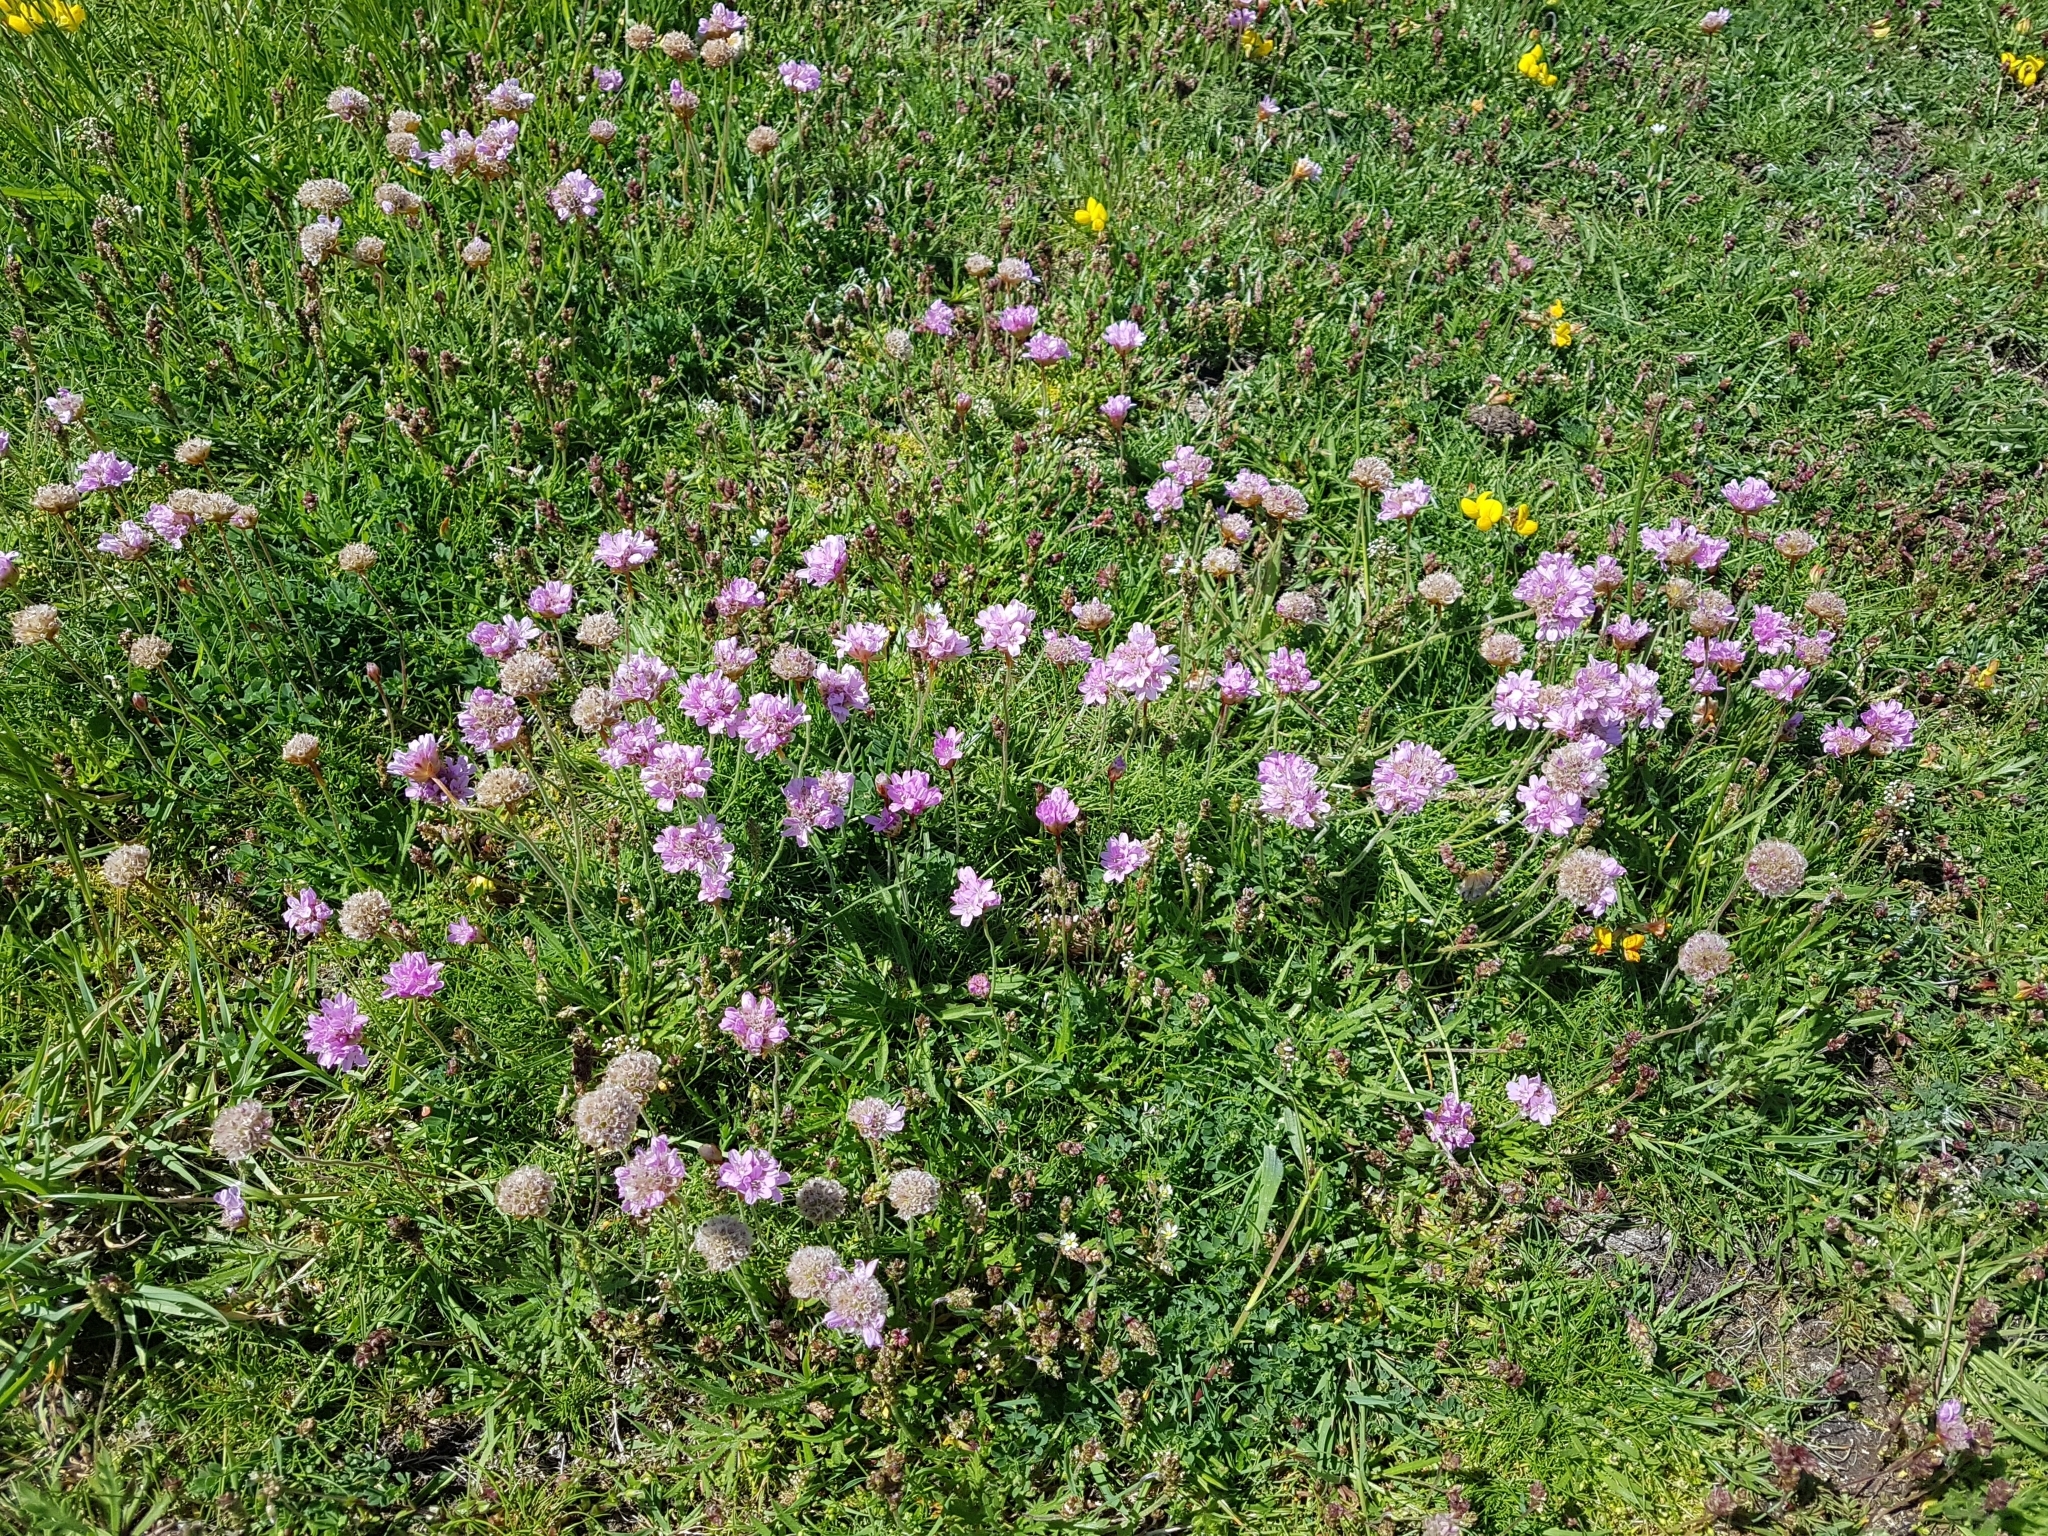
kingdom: Plantae
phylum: Tracheophyta
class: Magnoliopsida
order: Caryophyllales
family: Plumbaginaceae
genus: Armeria
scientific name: Armeria maritima
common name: Thrift
